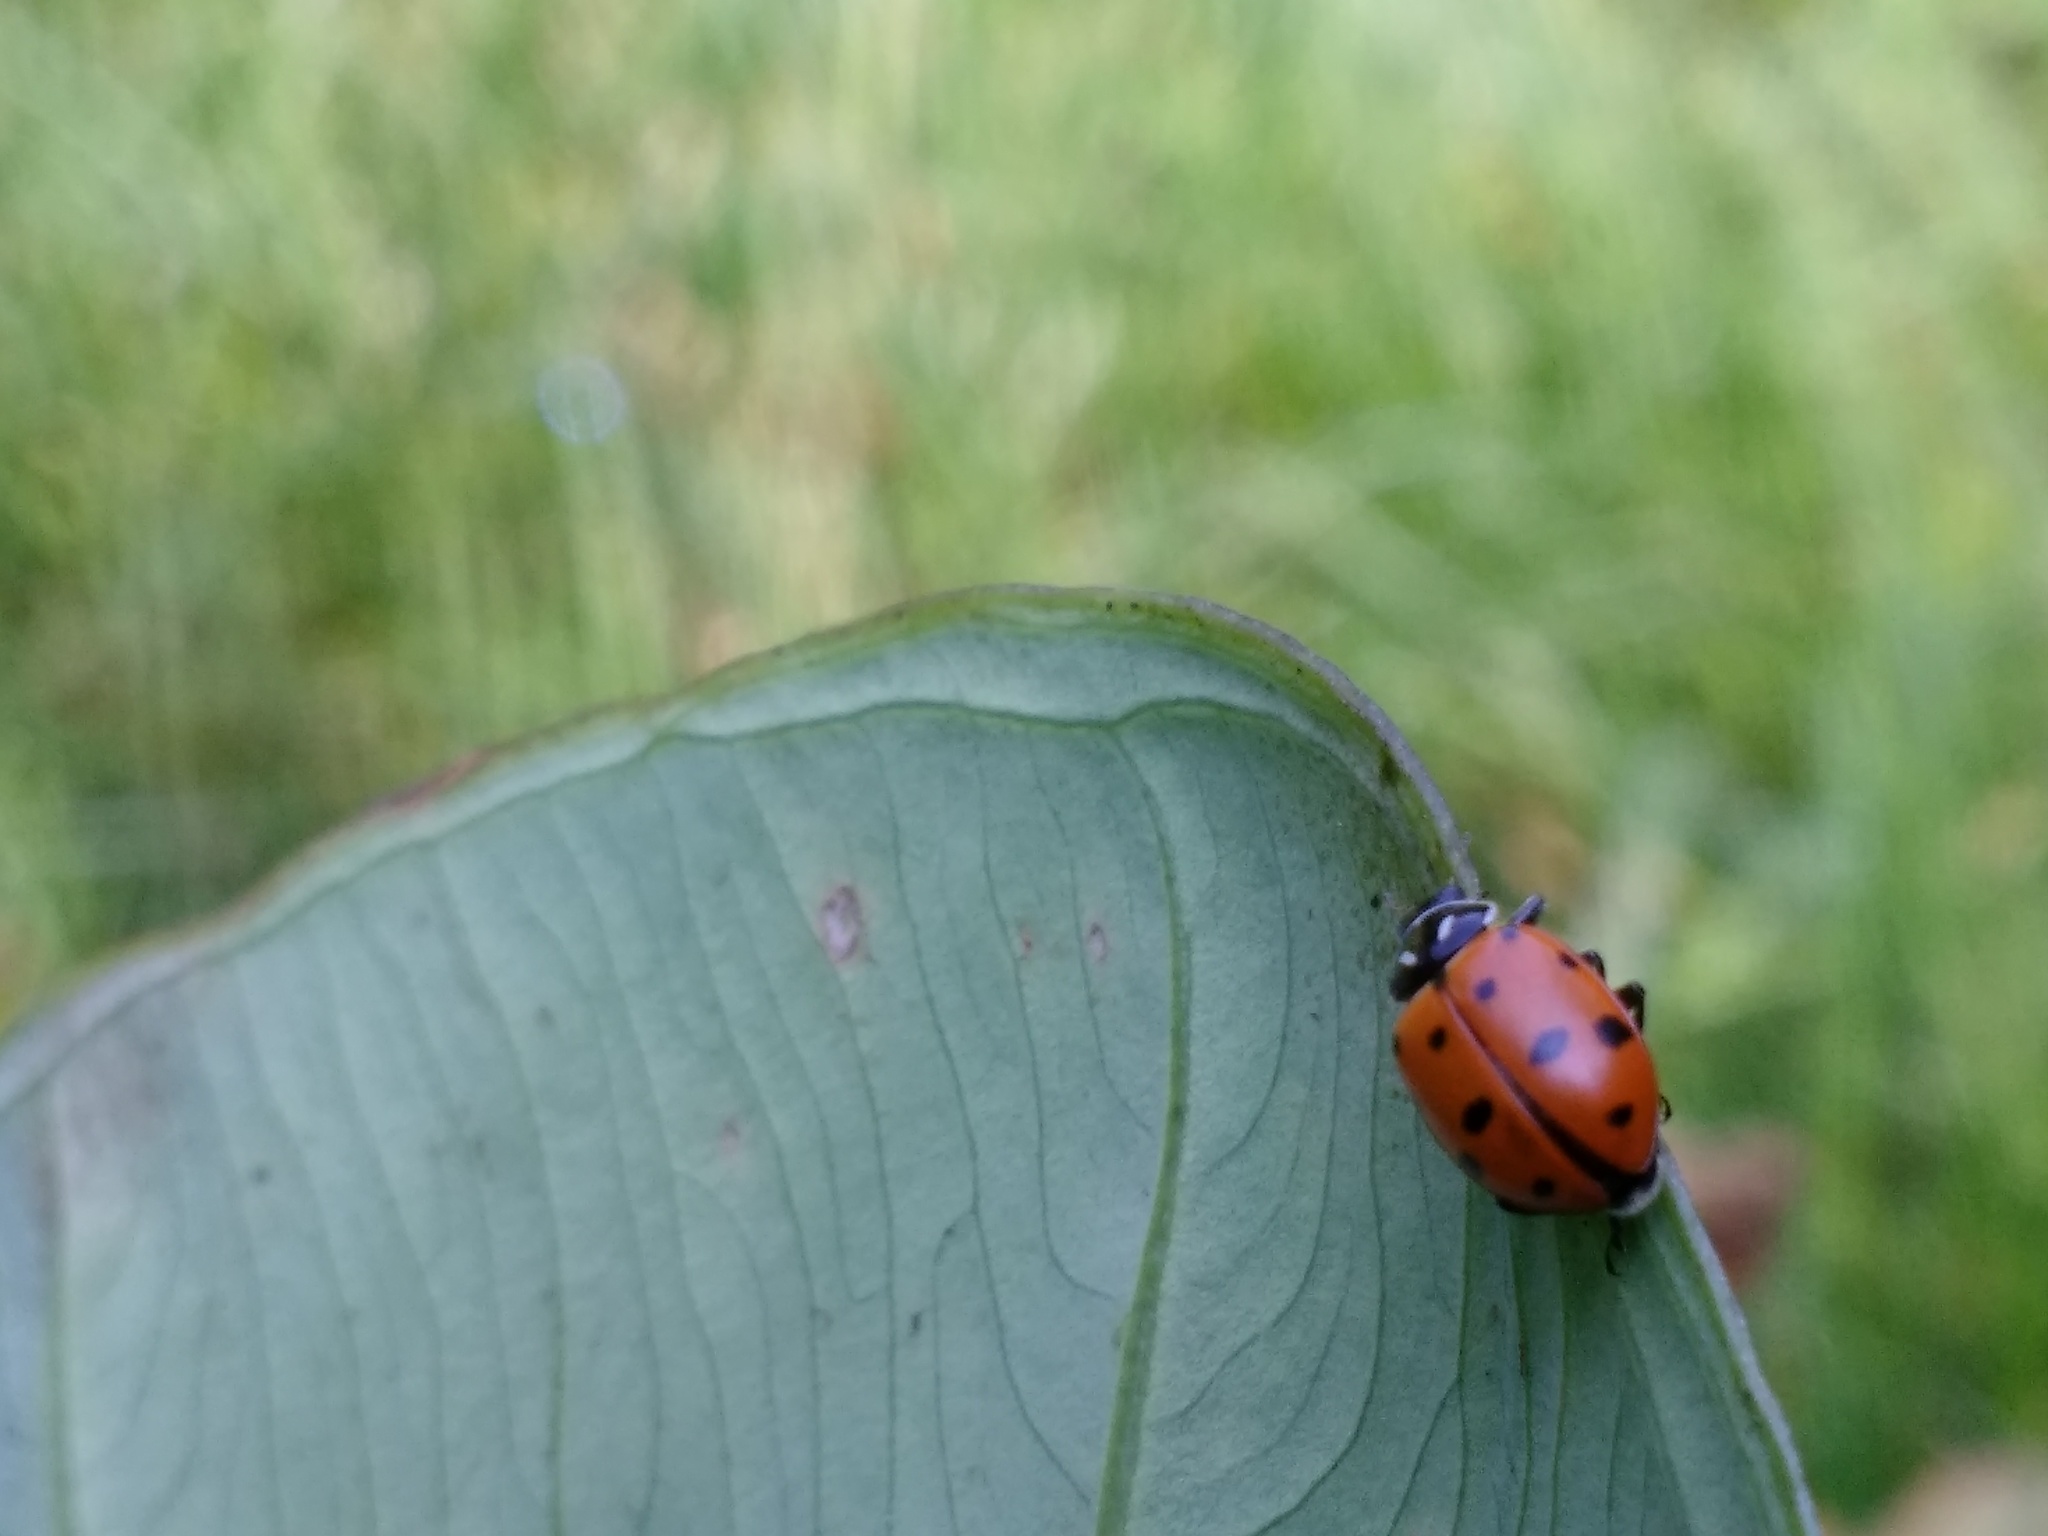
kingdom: Animalia
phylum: Arthropoda
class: Insecta
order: Coleoptera
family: Coccinellidae
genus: Hippodamia
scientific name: Hippodamia convergens
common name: Convergent lady beetle
